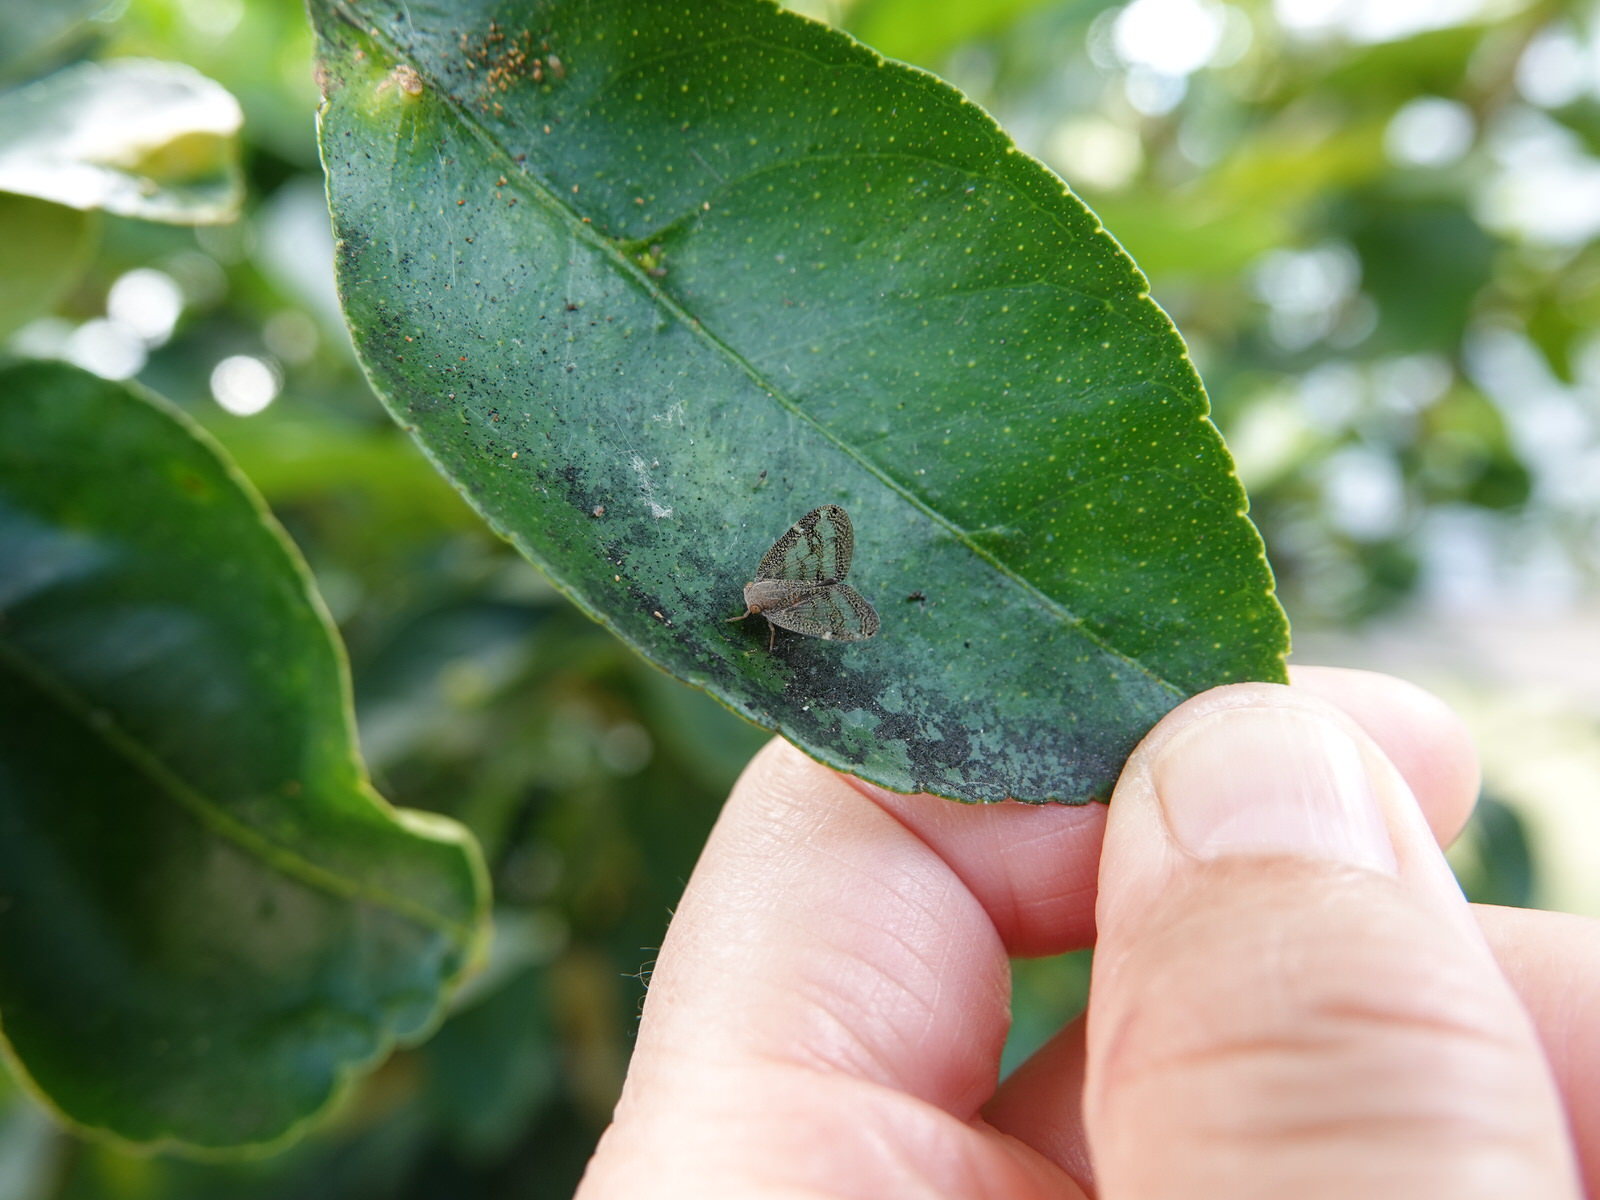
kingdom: Animalia
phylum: Arthropoda
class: Insecta
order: Hemiptera
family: Ricaniidae
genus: Scolypopa
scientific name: Scolypopa australis
